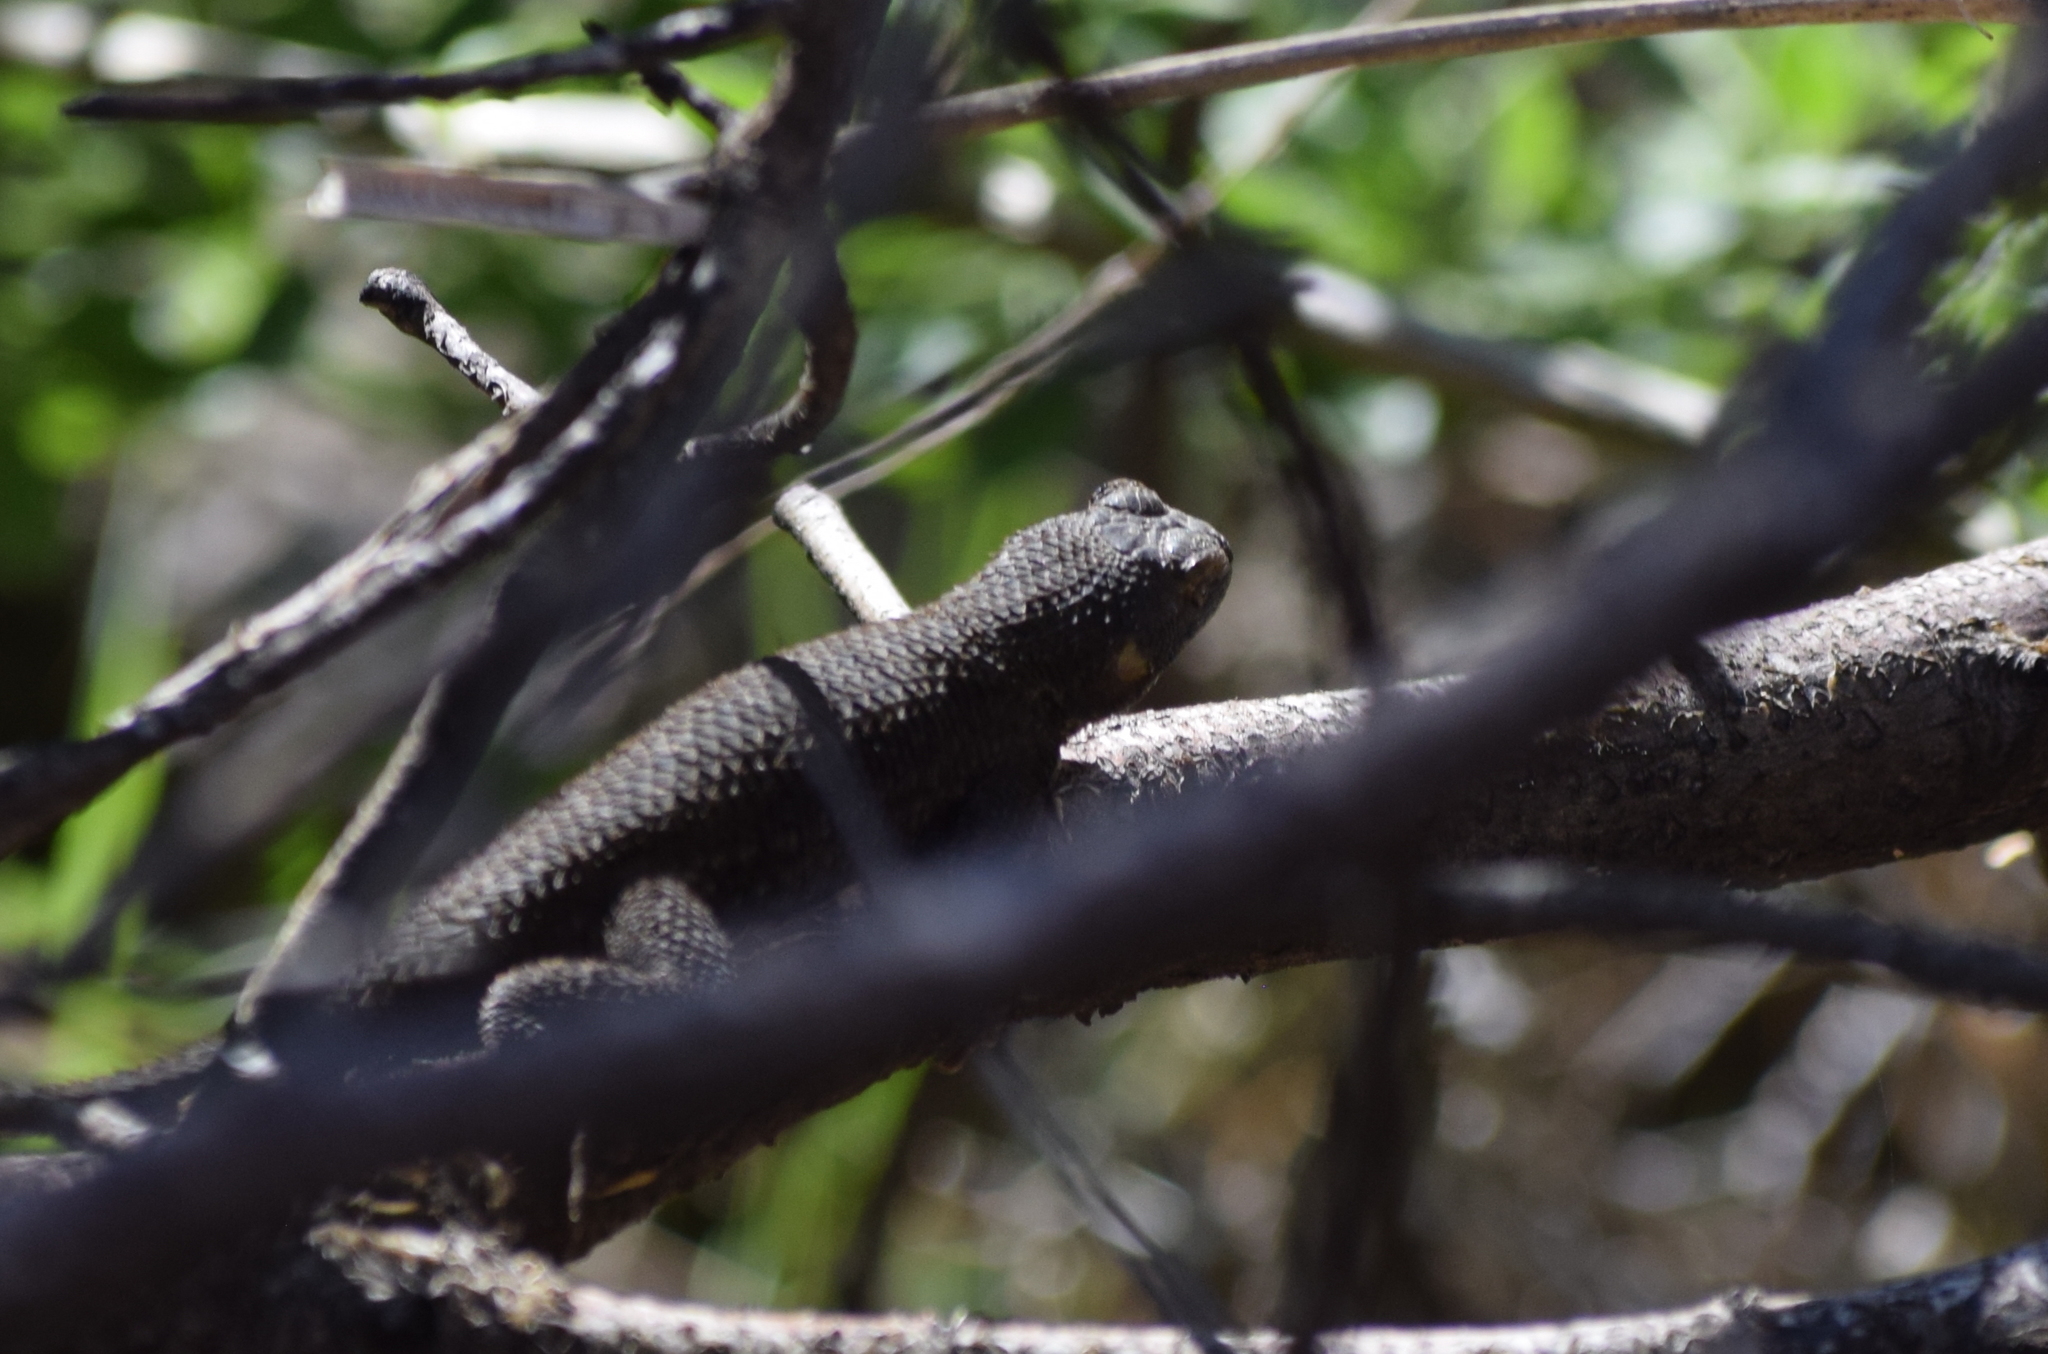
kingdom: Animalia
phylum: Chordata
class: Squamata
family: Phrynosomatidae
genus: Sceloporus
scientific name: Sceloporus occidentalis
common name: Western fence lizard
